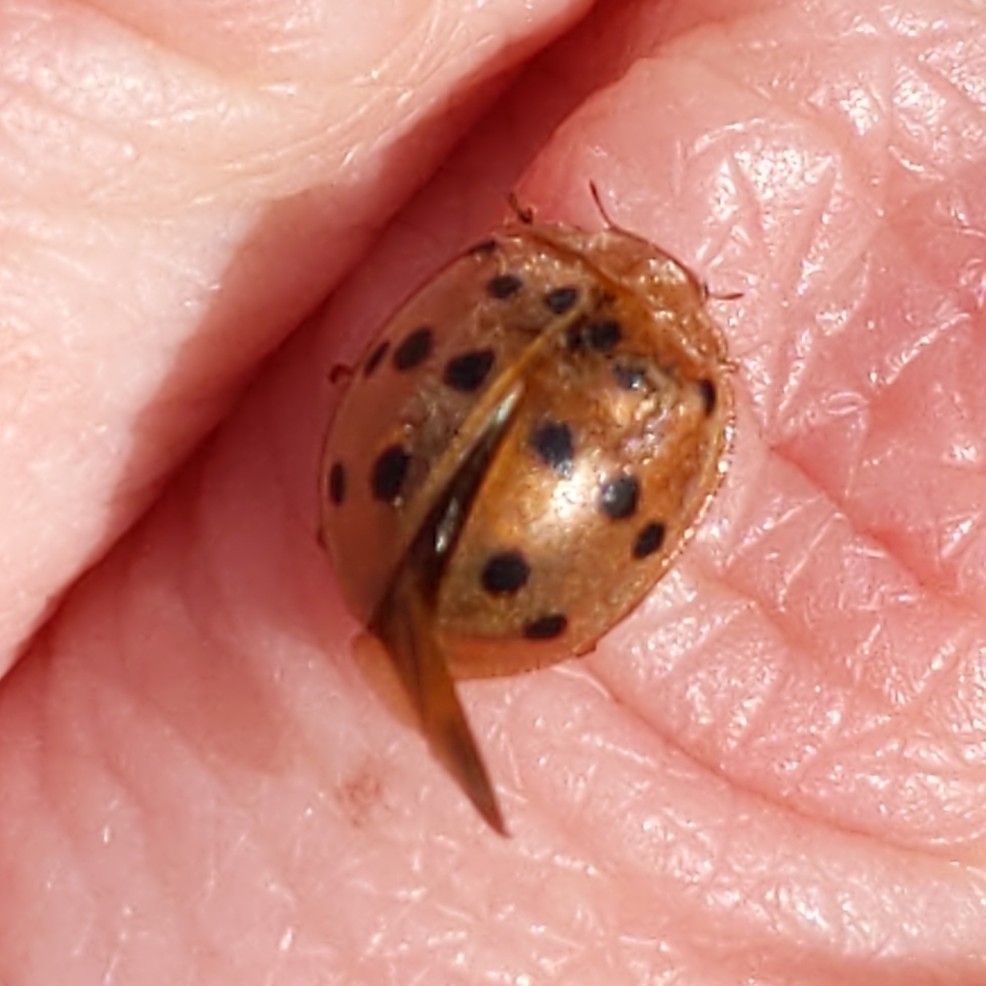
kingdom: Animalia
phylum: Arthropoda
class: Insecta
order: Coleoptera
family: Coccinellidae
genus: Epilachna
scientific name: Epilachna varivestis
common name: Ladybird beetle
